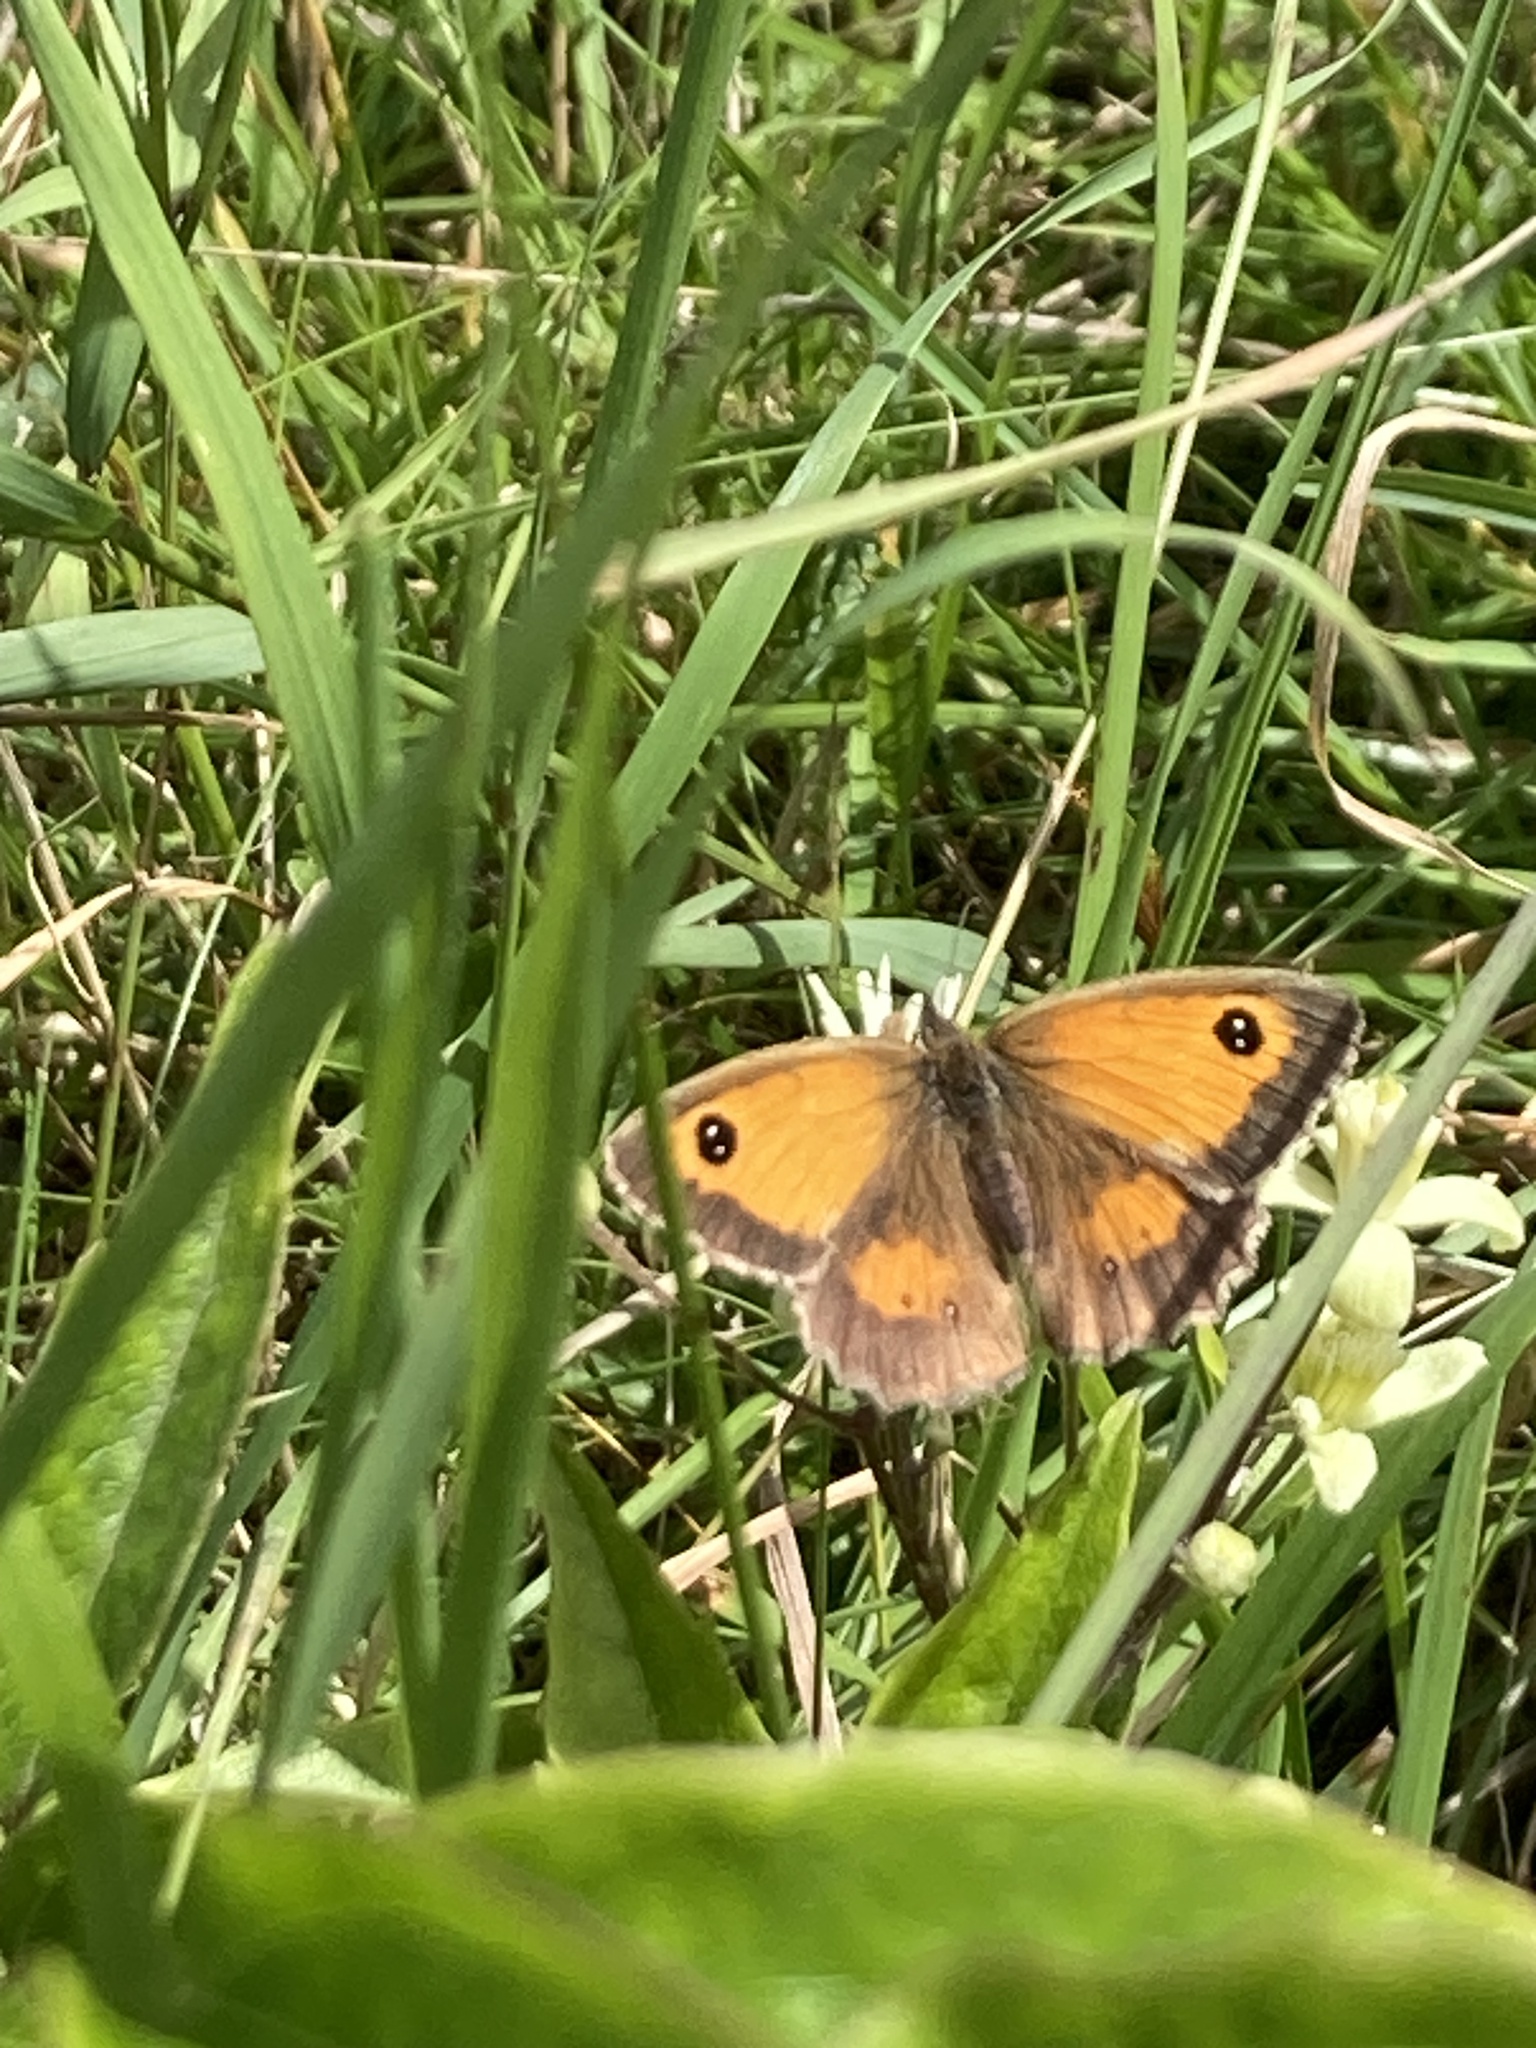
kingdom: Animalia
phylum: Arthropoda
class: Insecta
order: Lepidoptera
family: Nymphalidae
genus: Pyronia
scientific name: Pyronia tithonus
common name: Gatekeeper
